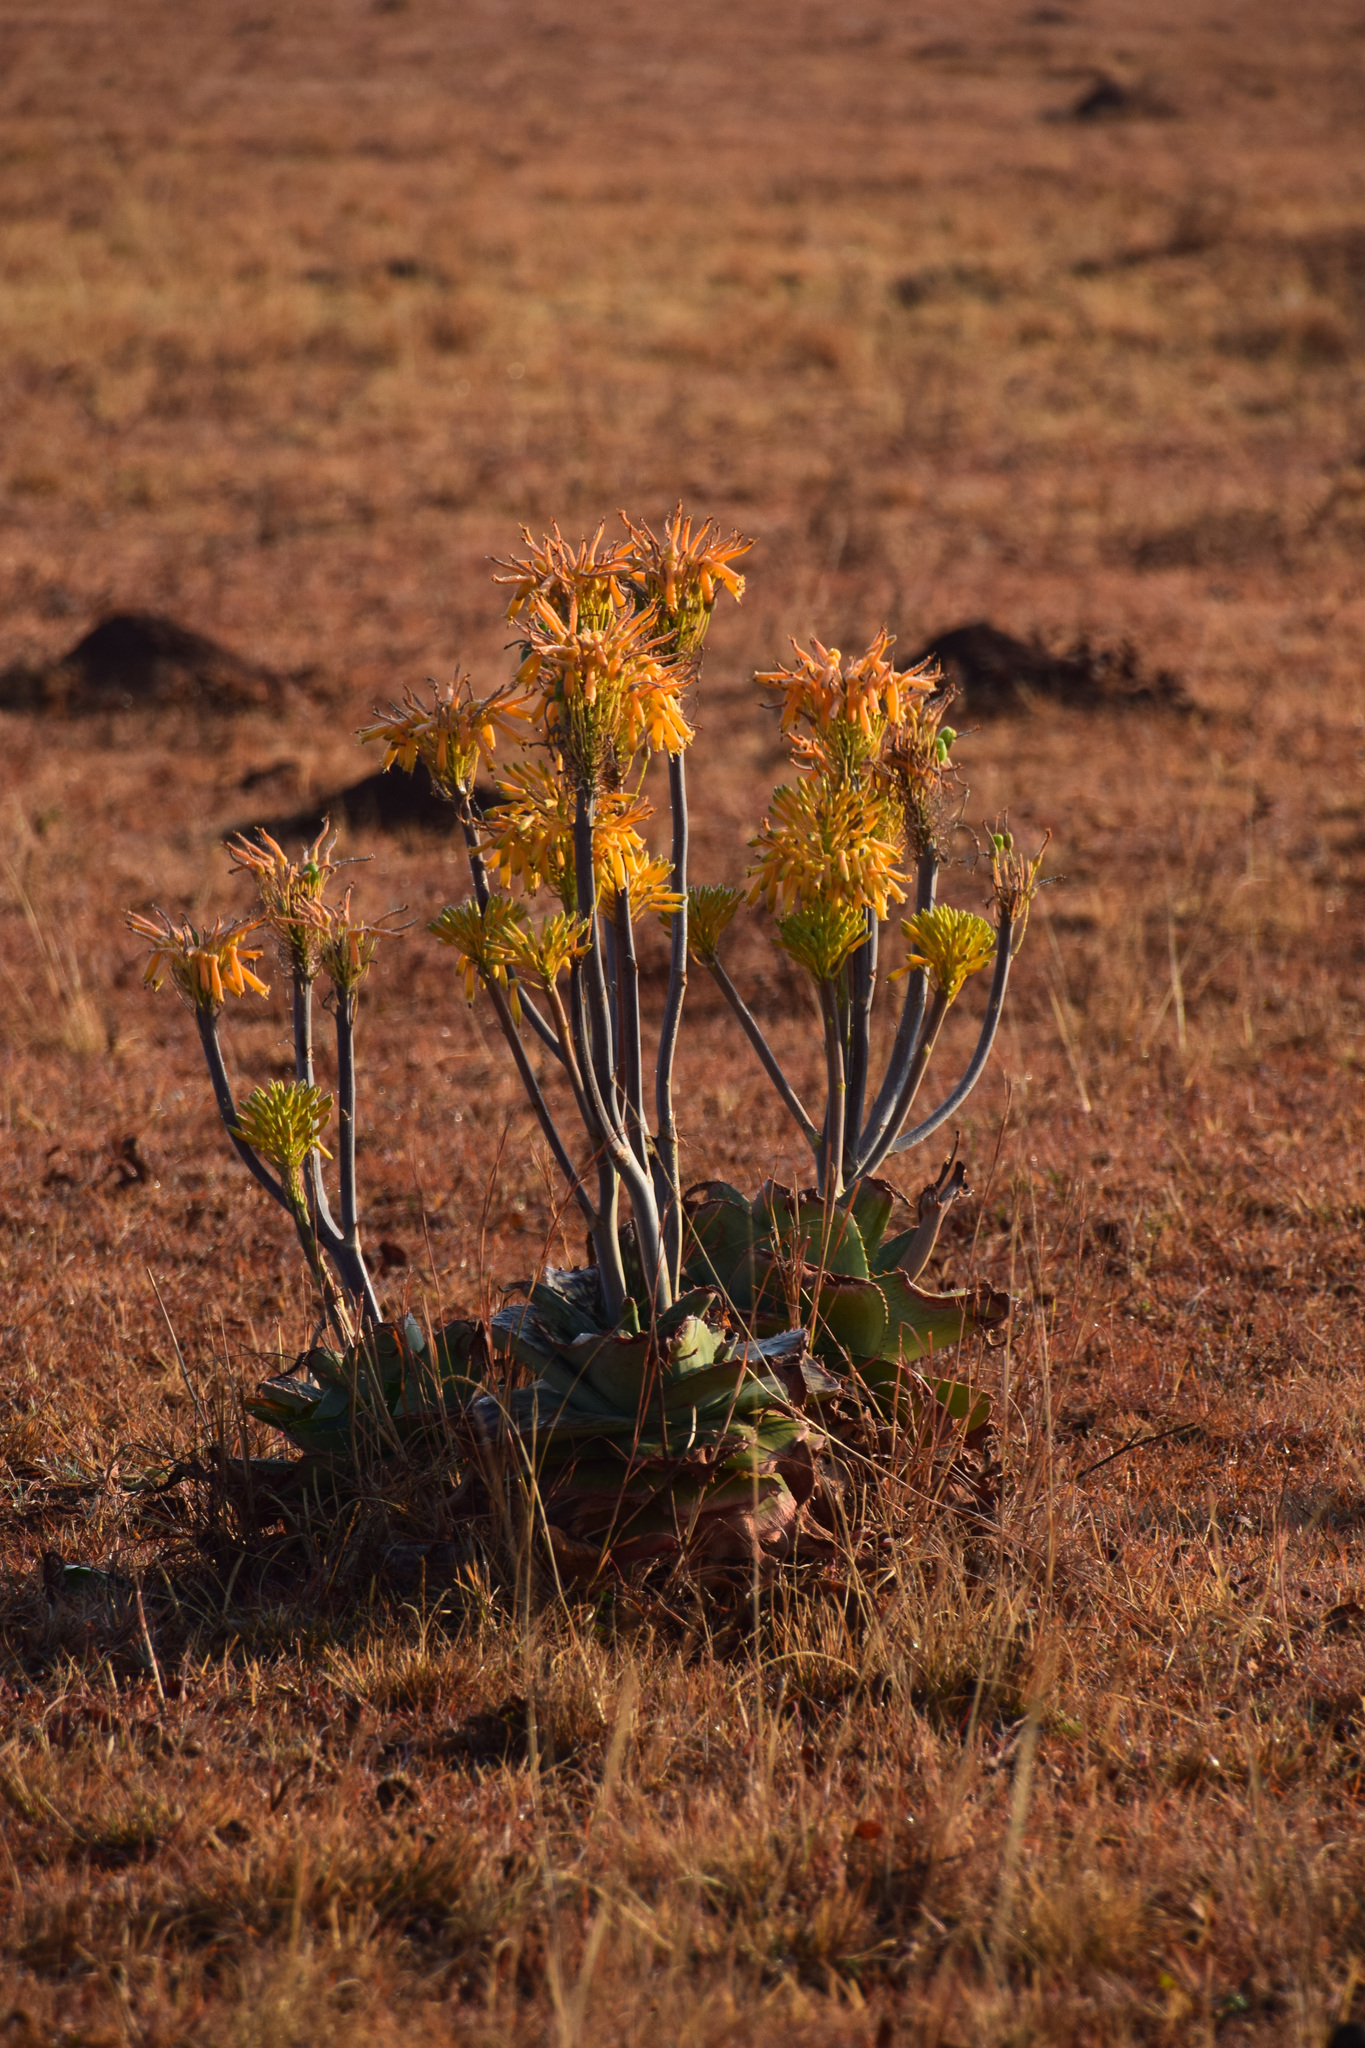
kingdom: Plantae
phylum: Tracheophyta
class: Liliopsida
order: Asparagales
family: Asphodelaceae
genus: Aloe
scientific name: Aloe maculata
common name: Broadleaf aloe
